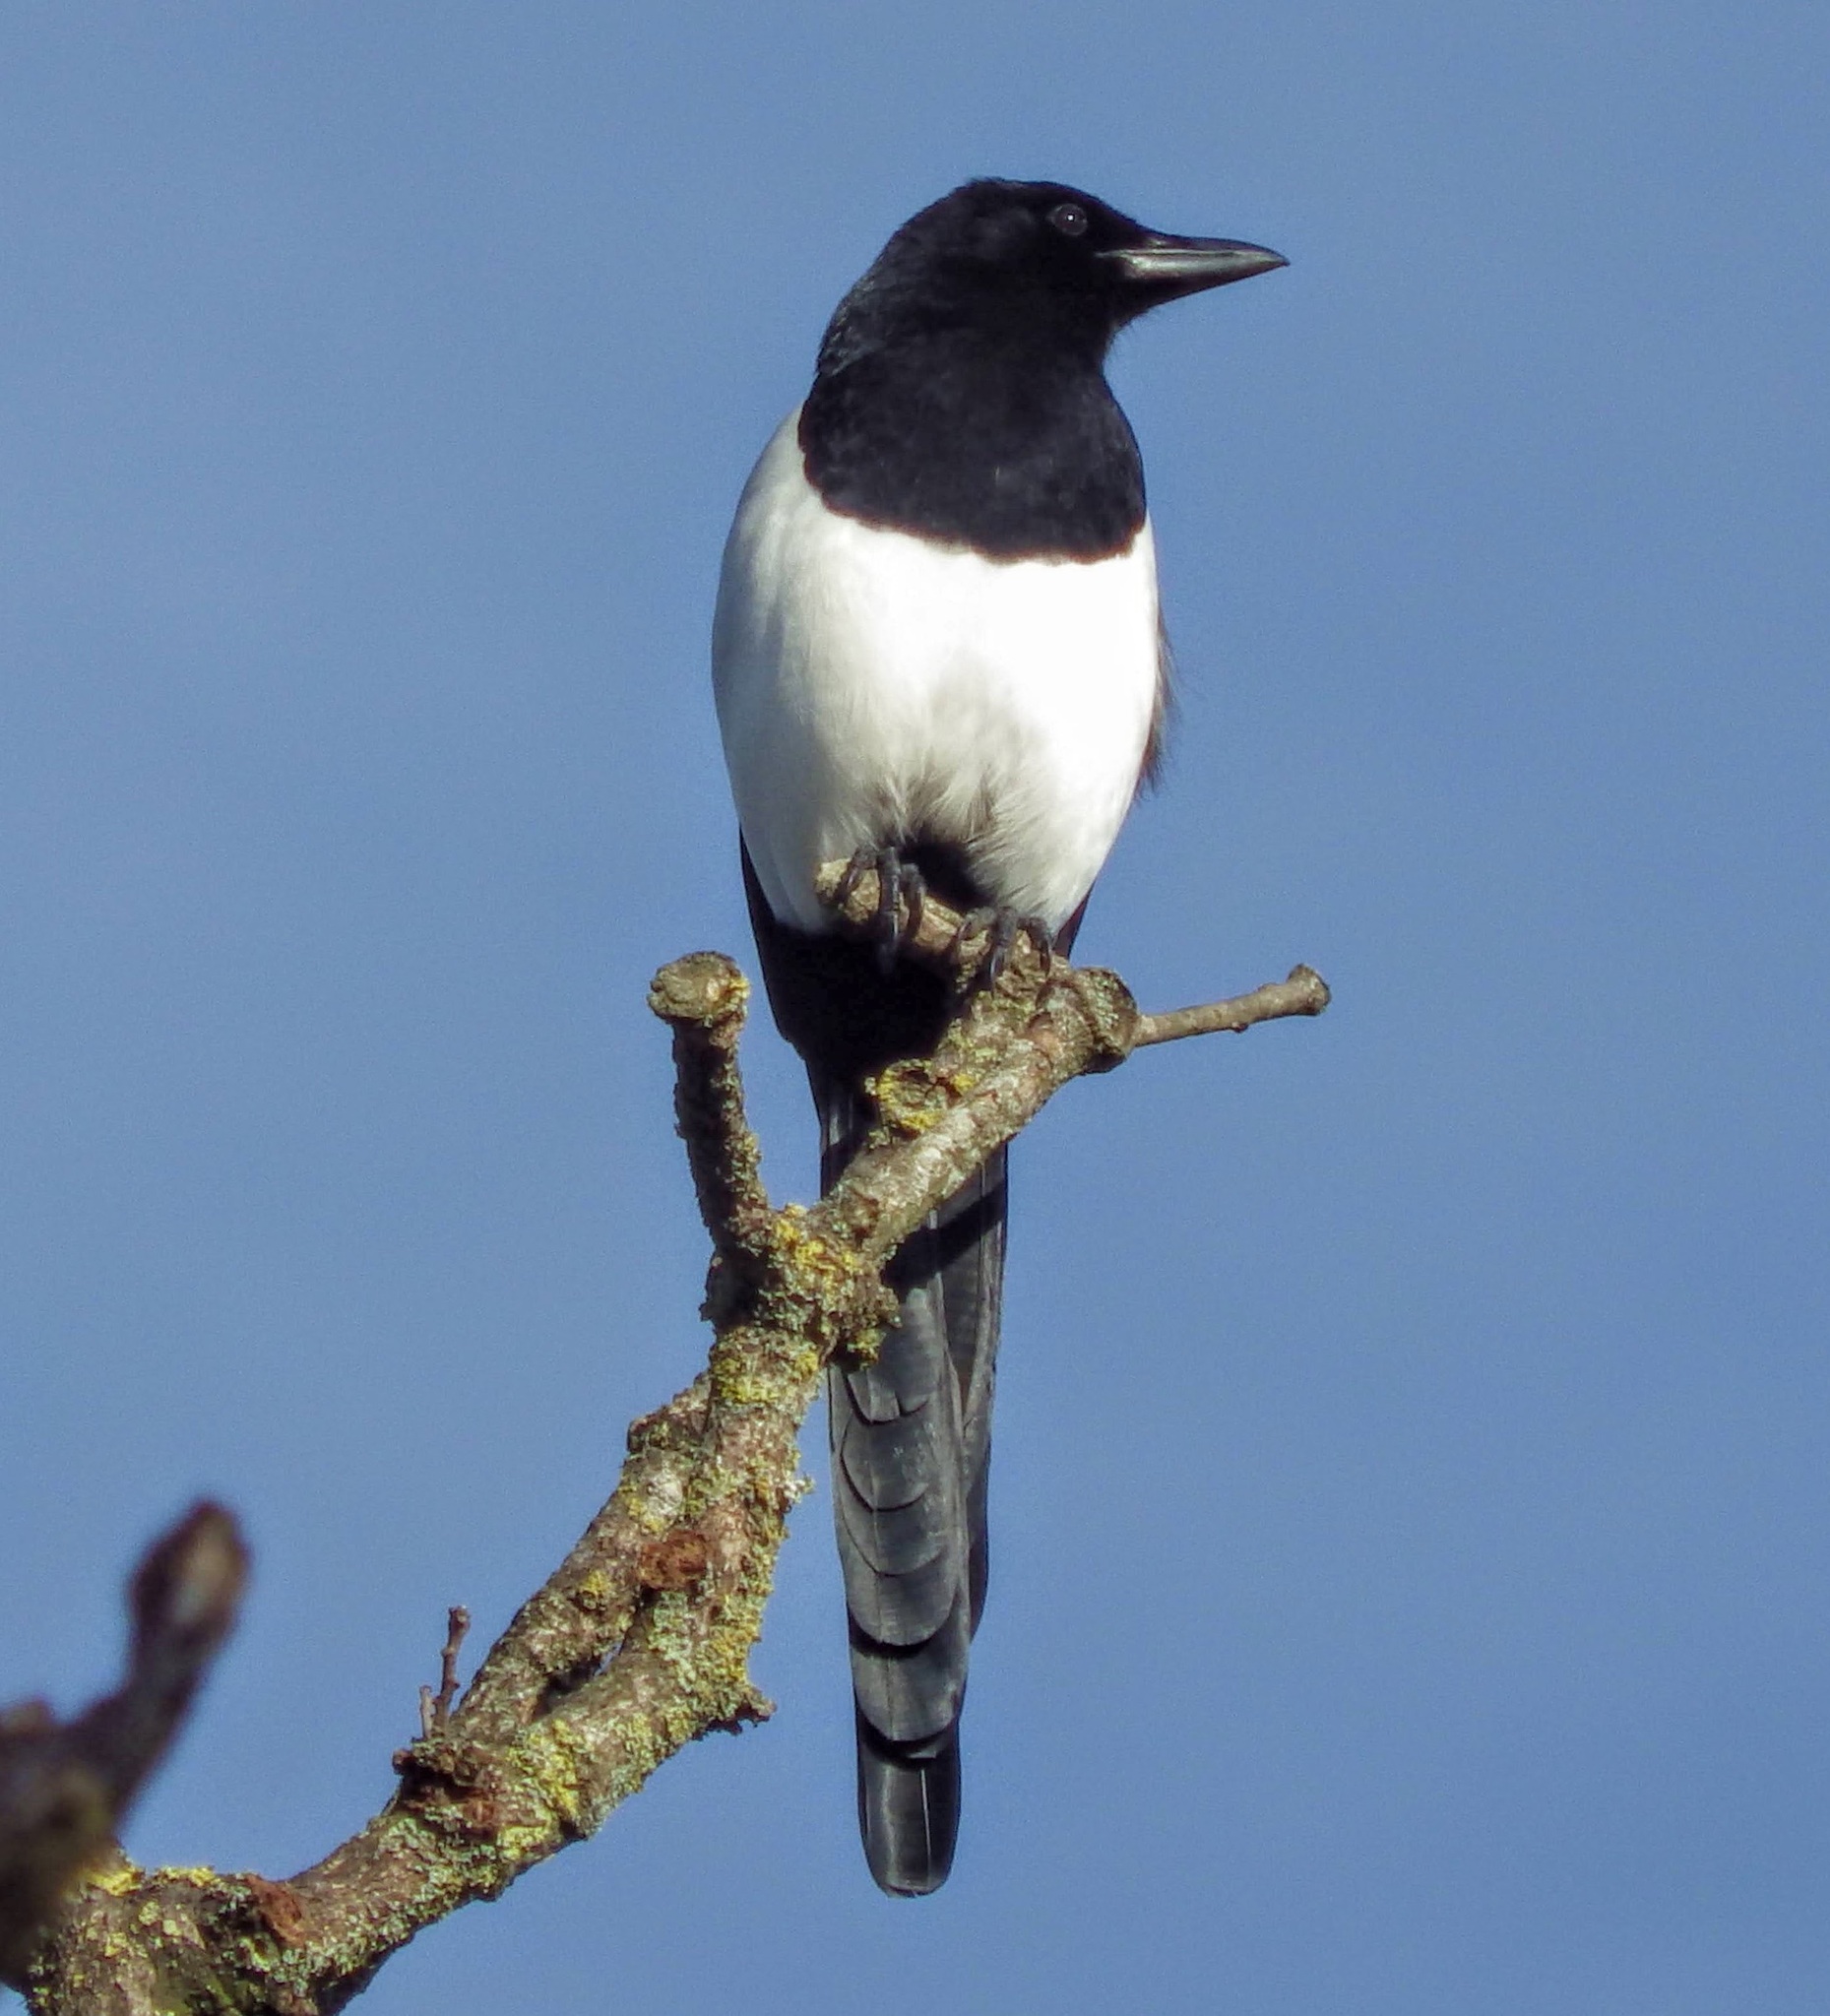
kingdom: Animalia
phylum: Chordata
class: Aves
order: Passeriformes
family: Corvidae
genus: Pica
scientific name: Pica pica
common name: Eurasian magpie
